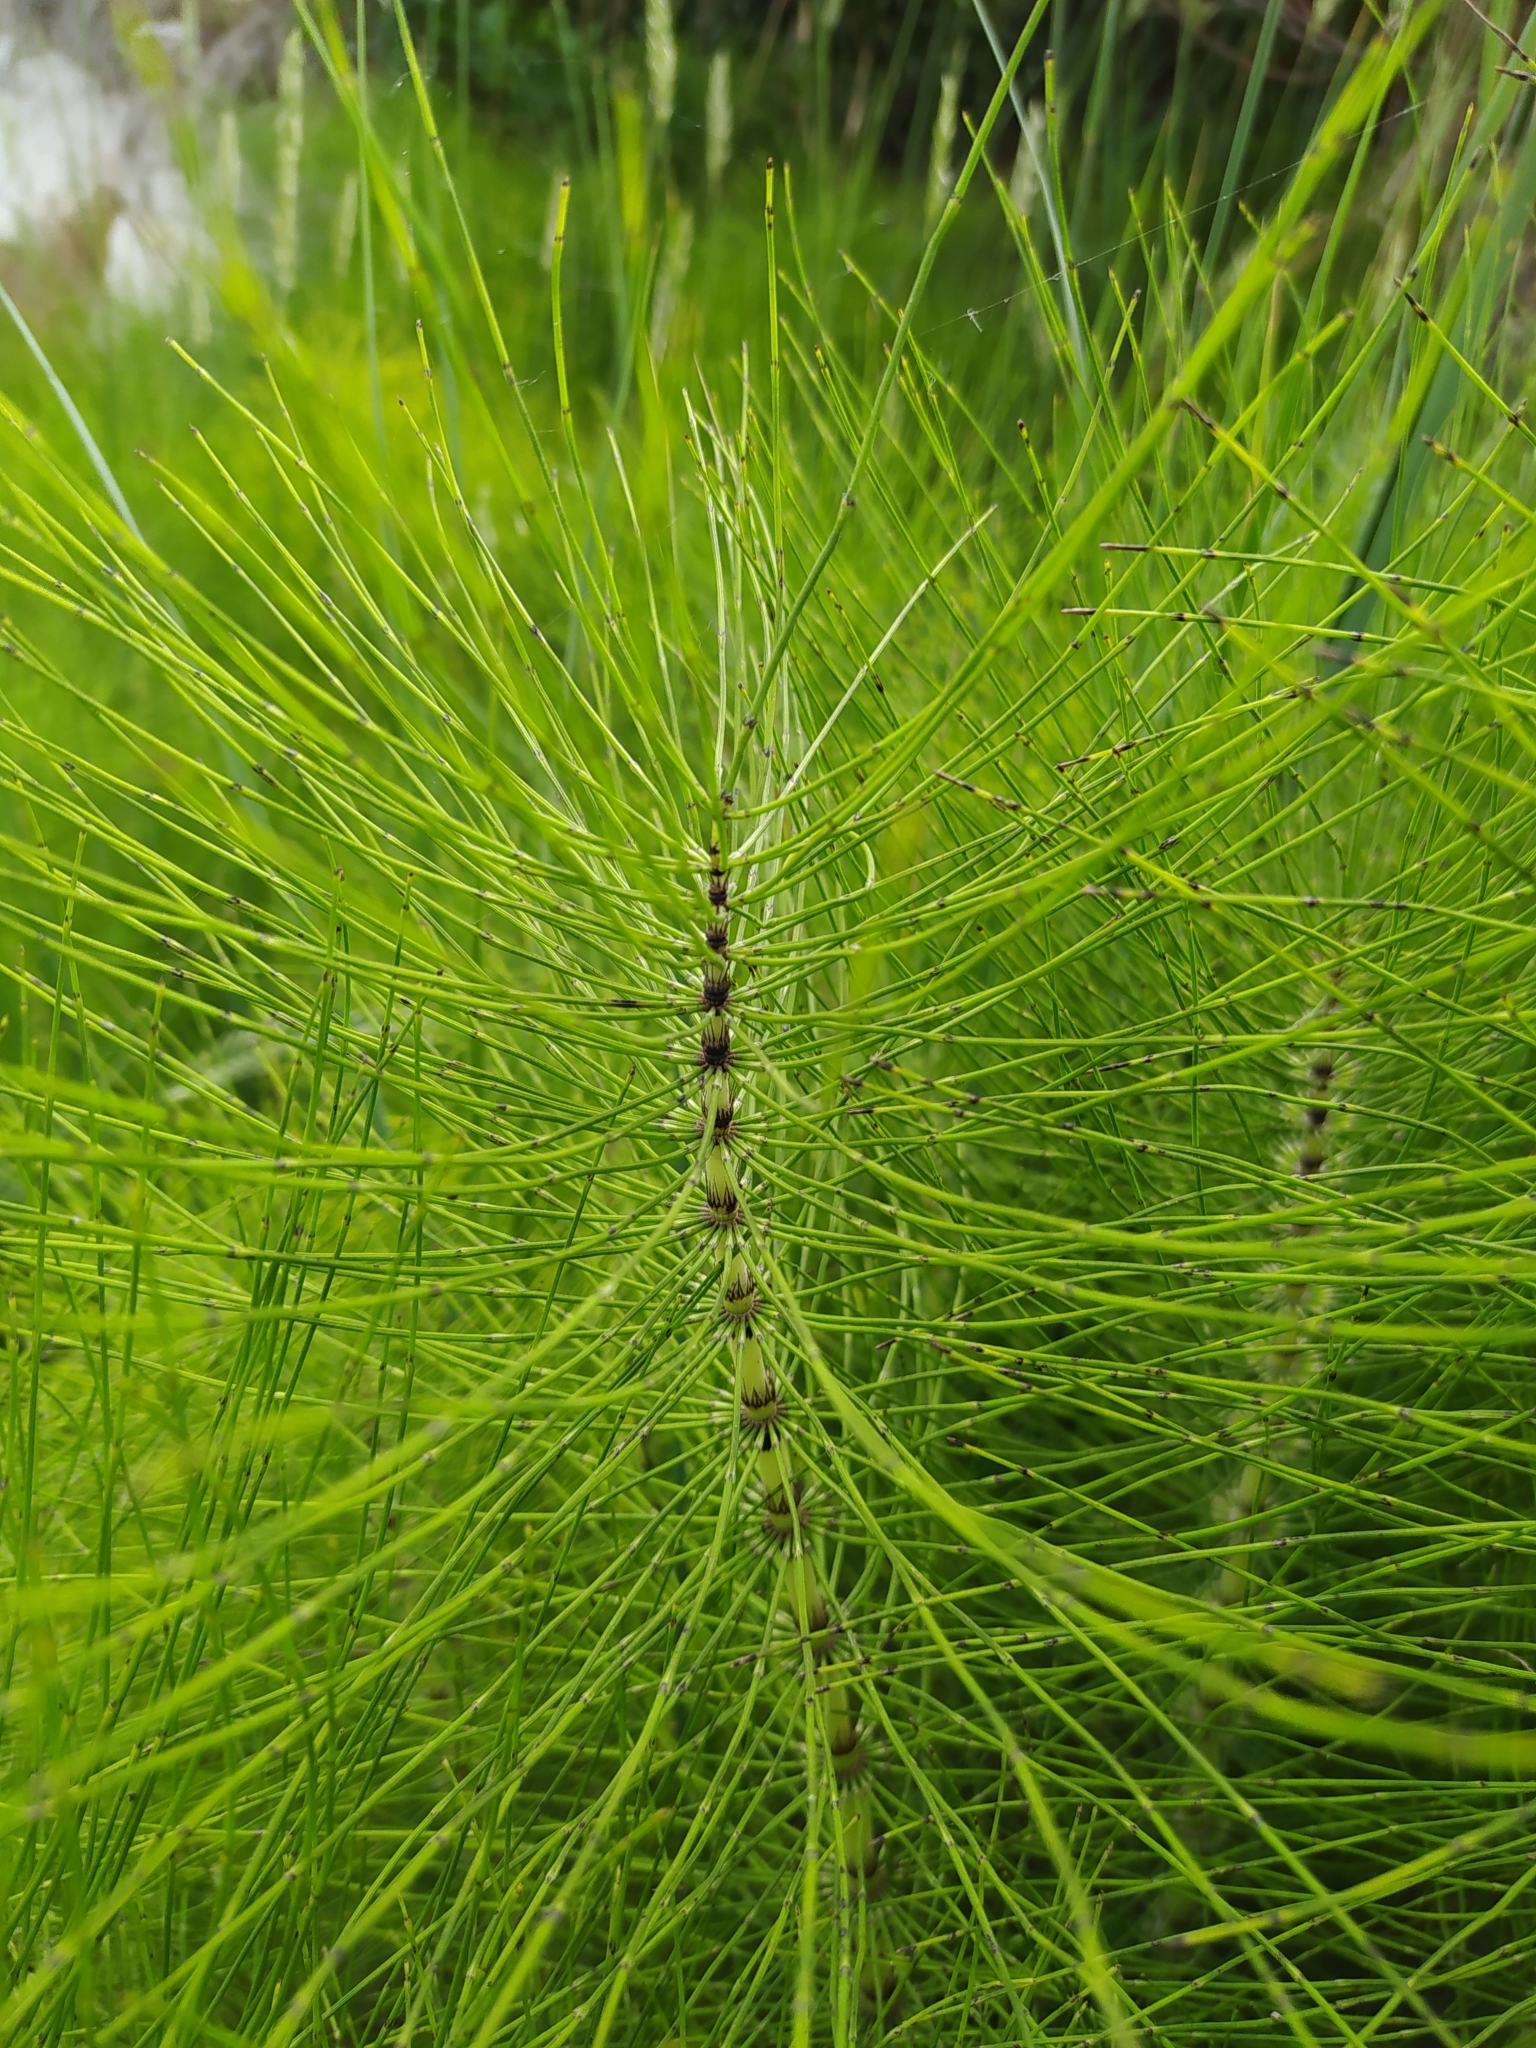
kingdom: Plantae
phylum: Tracheophyta
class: Polypodiopsida
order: Equisetales
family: Equisetaceae
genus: Equisetum
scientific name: Equisetum telmateia
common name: Great horsetail
